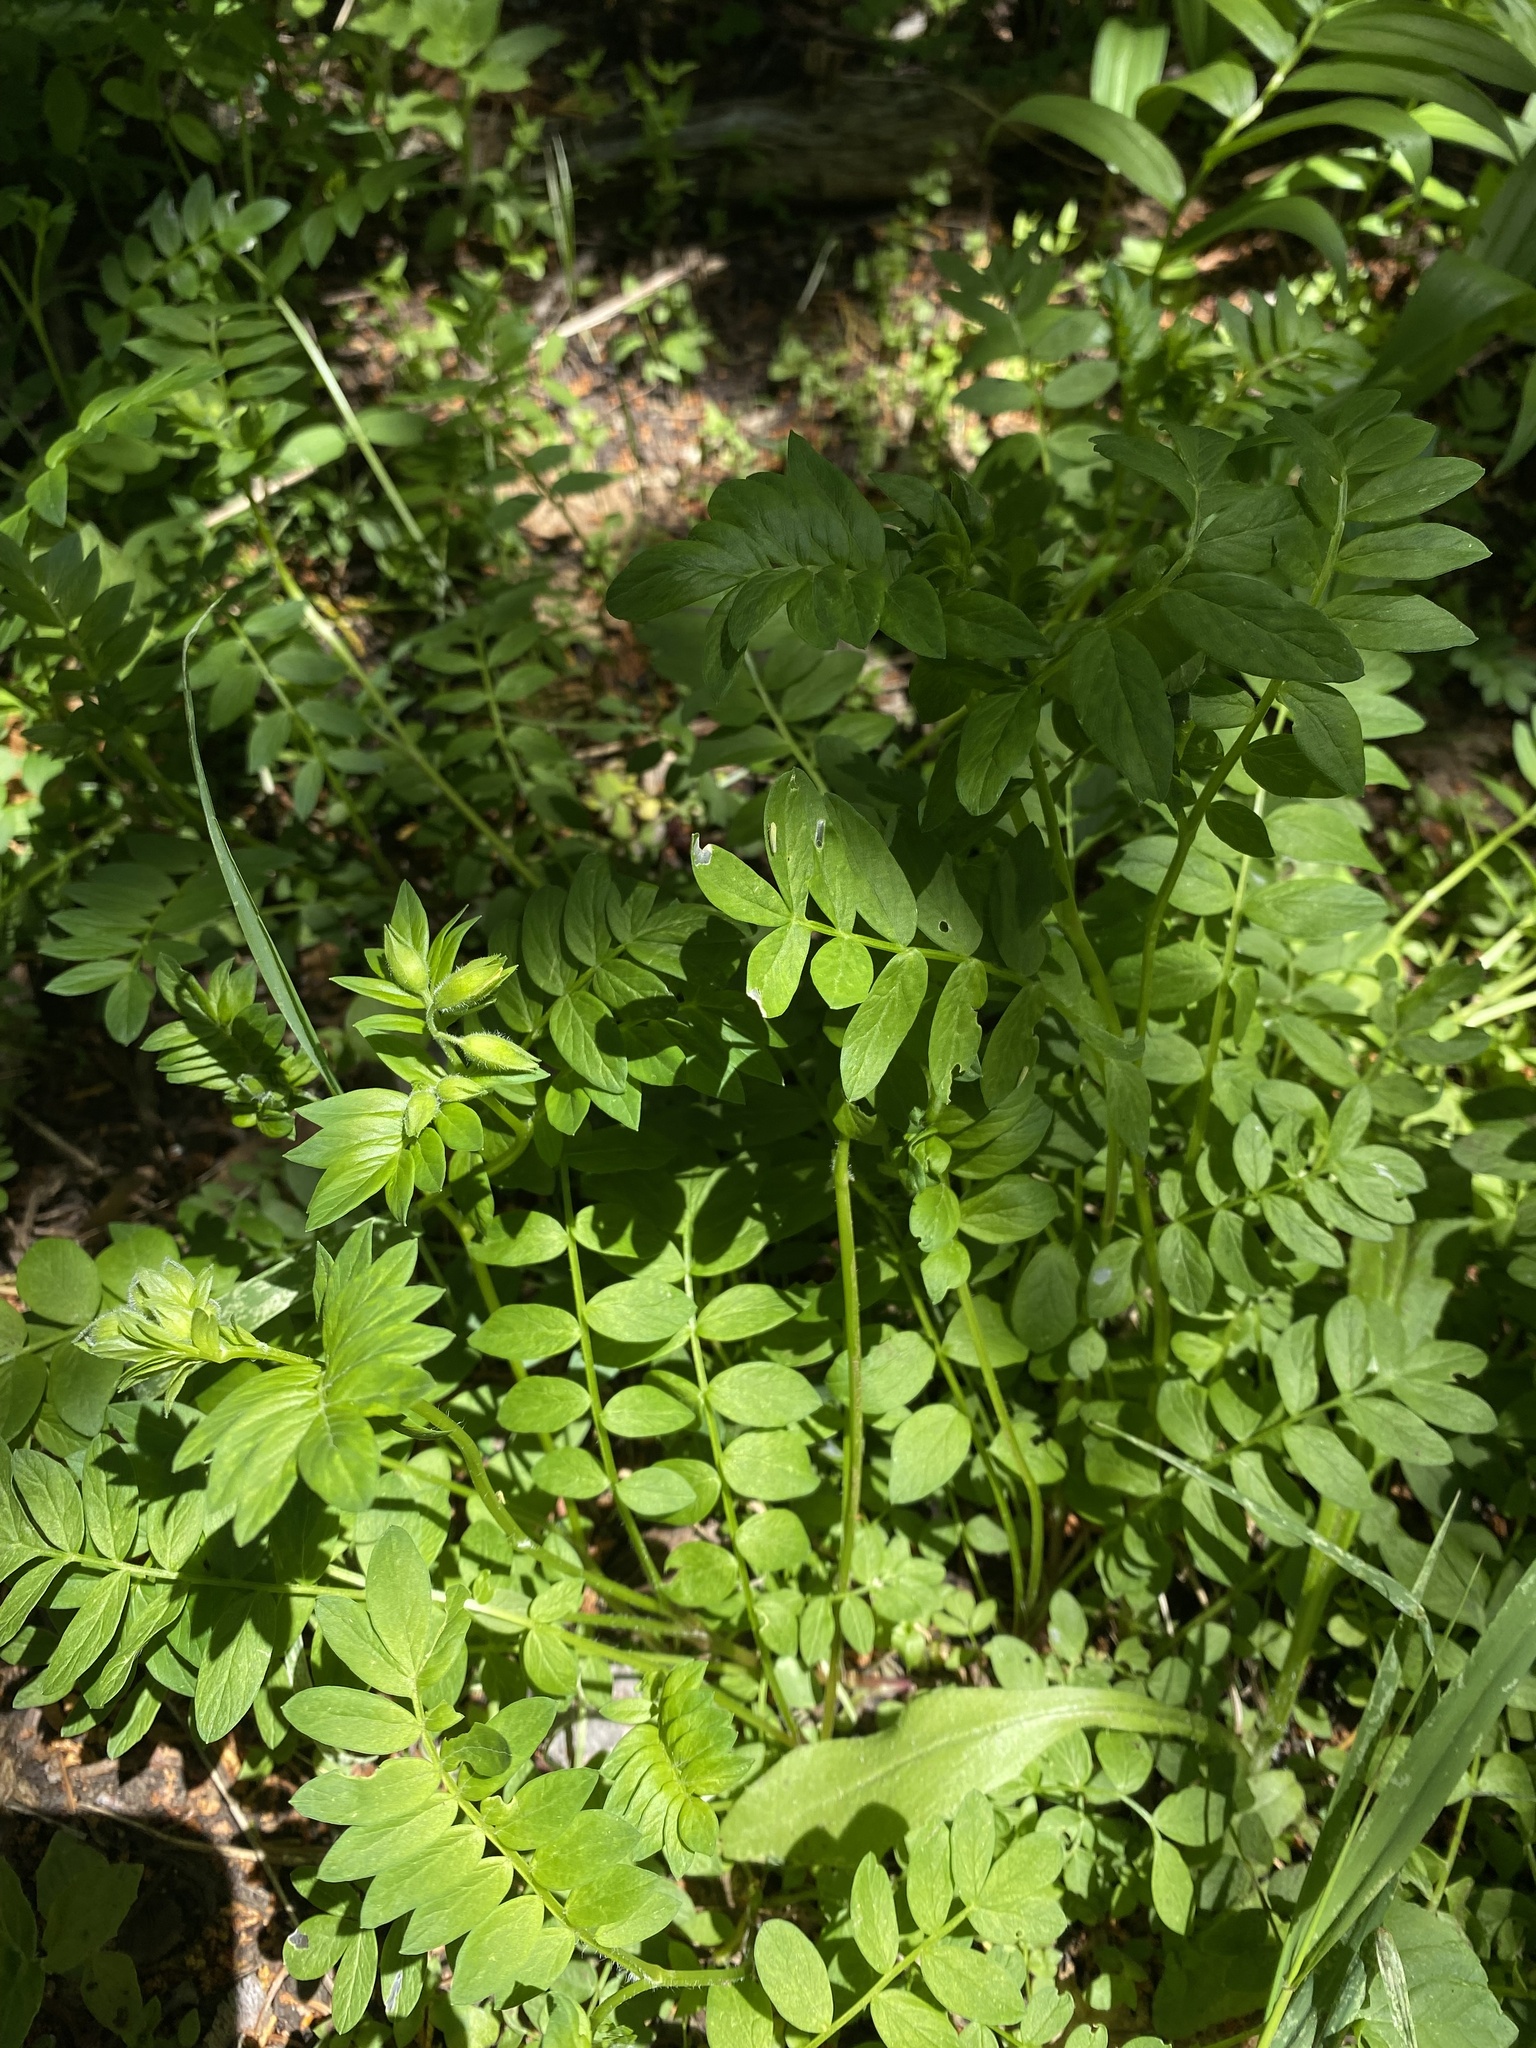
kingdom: Plantae
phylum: Tracheophyta
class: Magnoliopsida
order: Ericales
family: Polemoniaceae
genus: Polemonium
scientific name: Polemonium carneum
